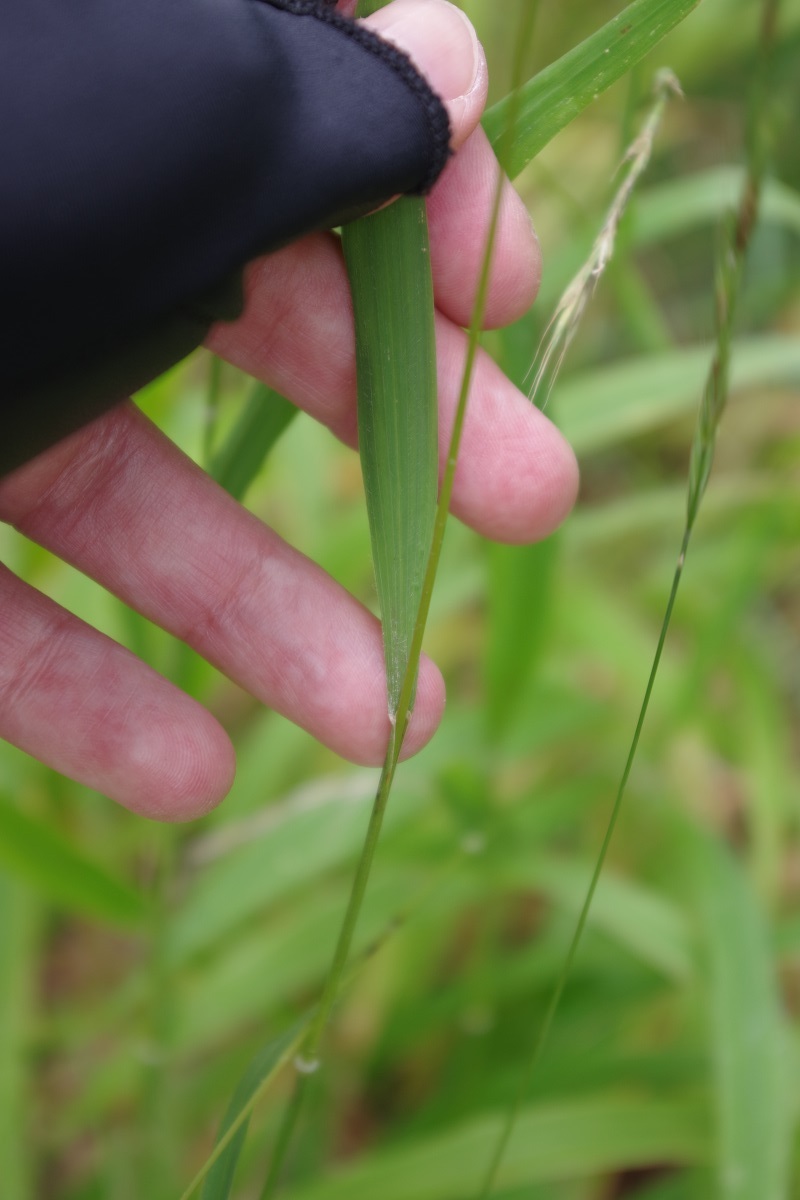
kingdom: Plantae
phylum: Tracheophyta
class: Liliopsida
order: Poales
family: Poaceae
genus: Brachypodium
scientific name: Brachypodium sylvaticum
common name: False-brome
